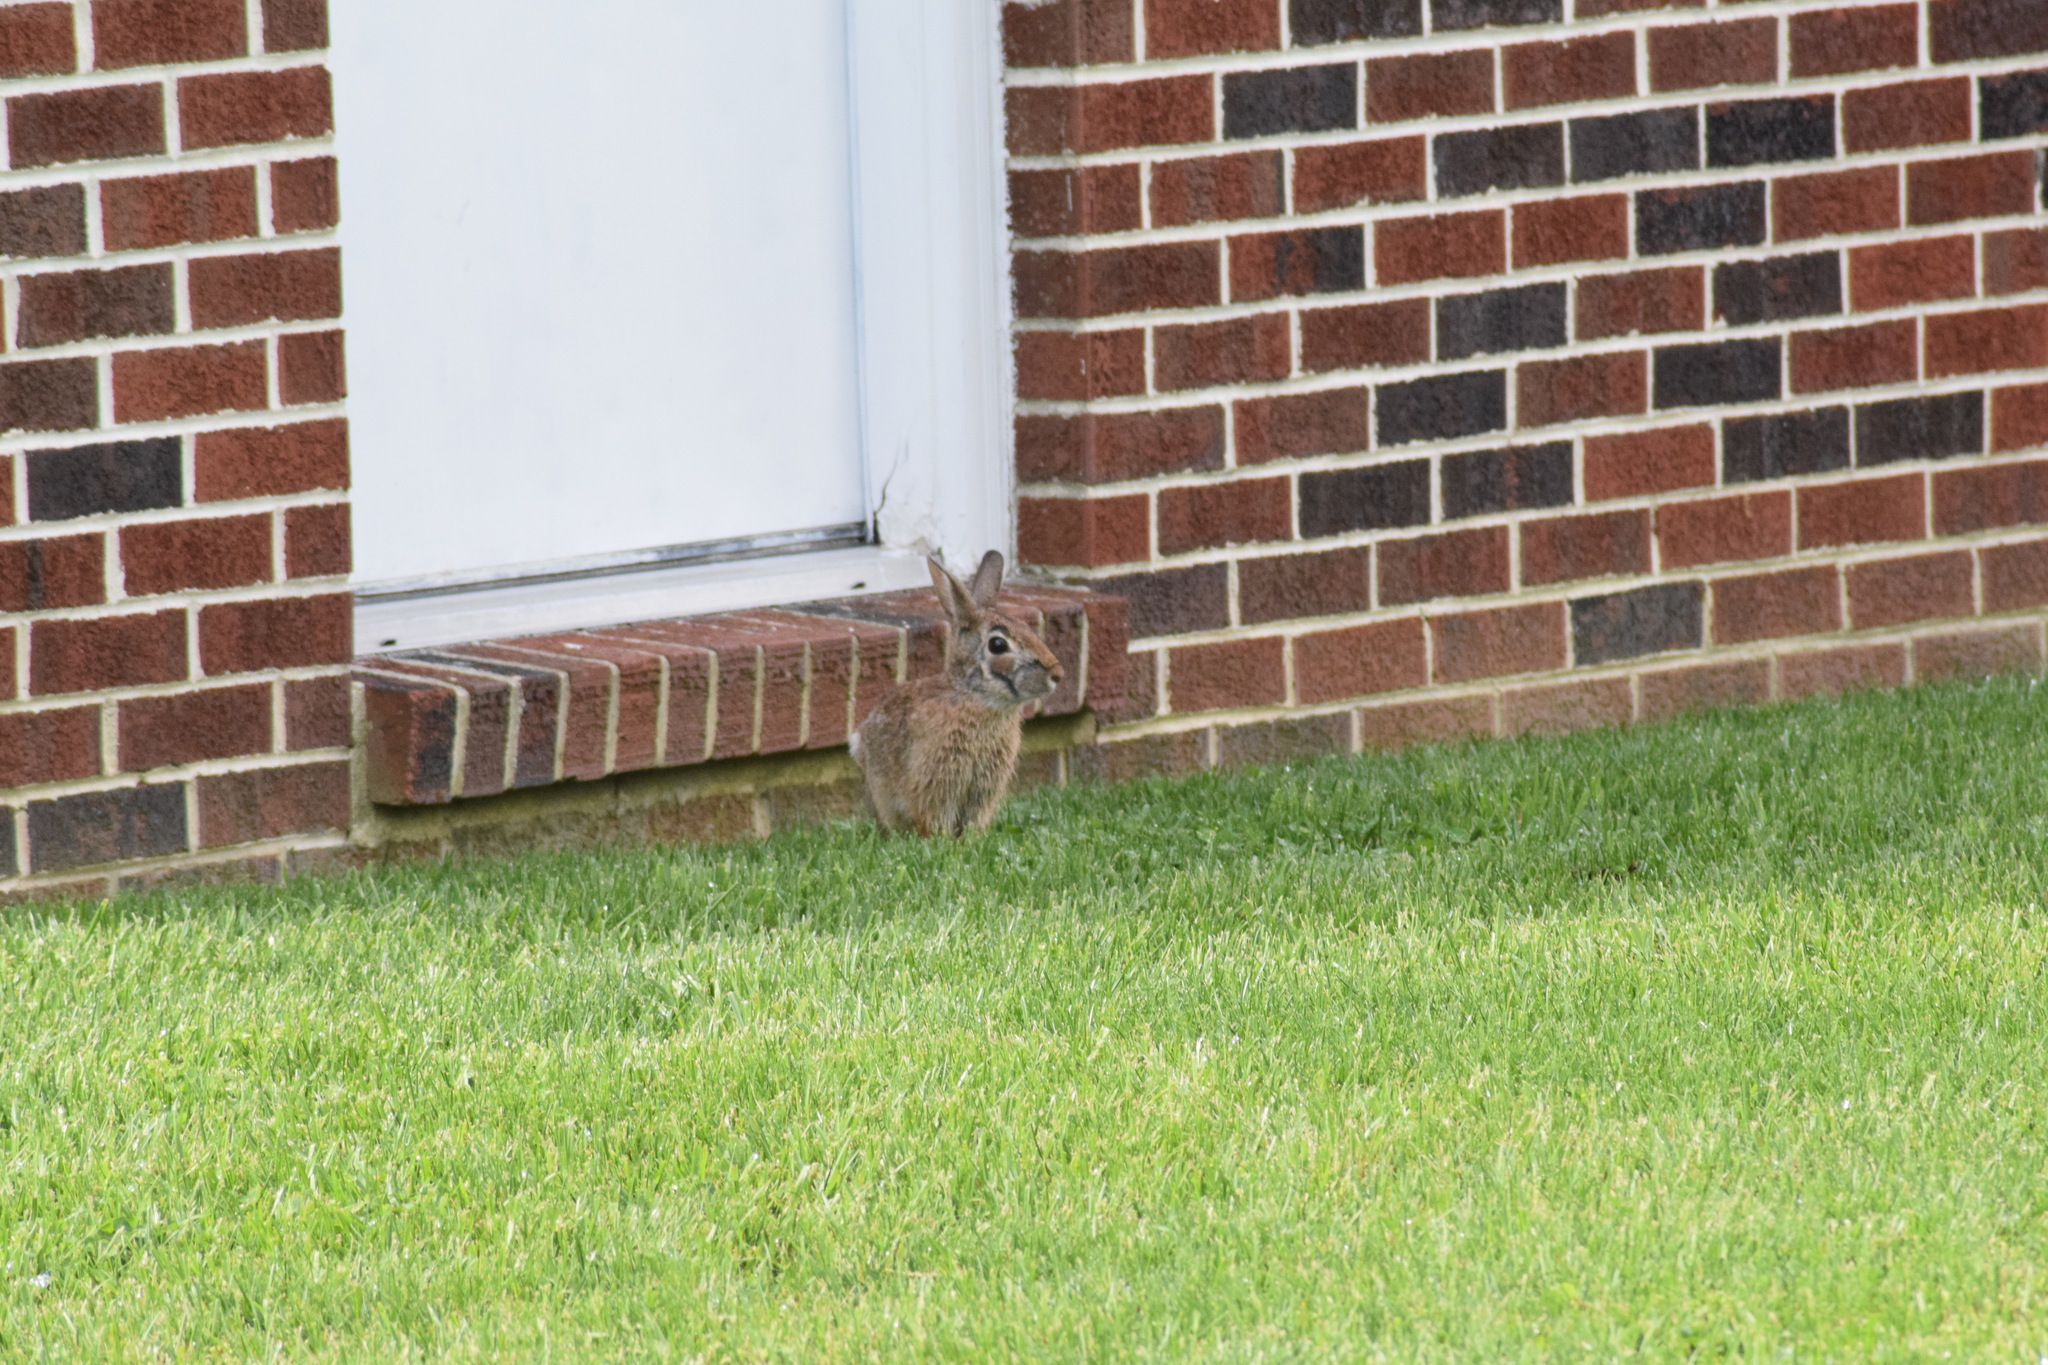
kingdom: Animalia
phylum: Chordata
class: Mammalia
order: Lagomorpha
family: Leporidae
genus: Sylvilagus
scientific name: Sylvilagus floridanus
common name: Eastern cottontail
